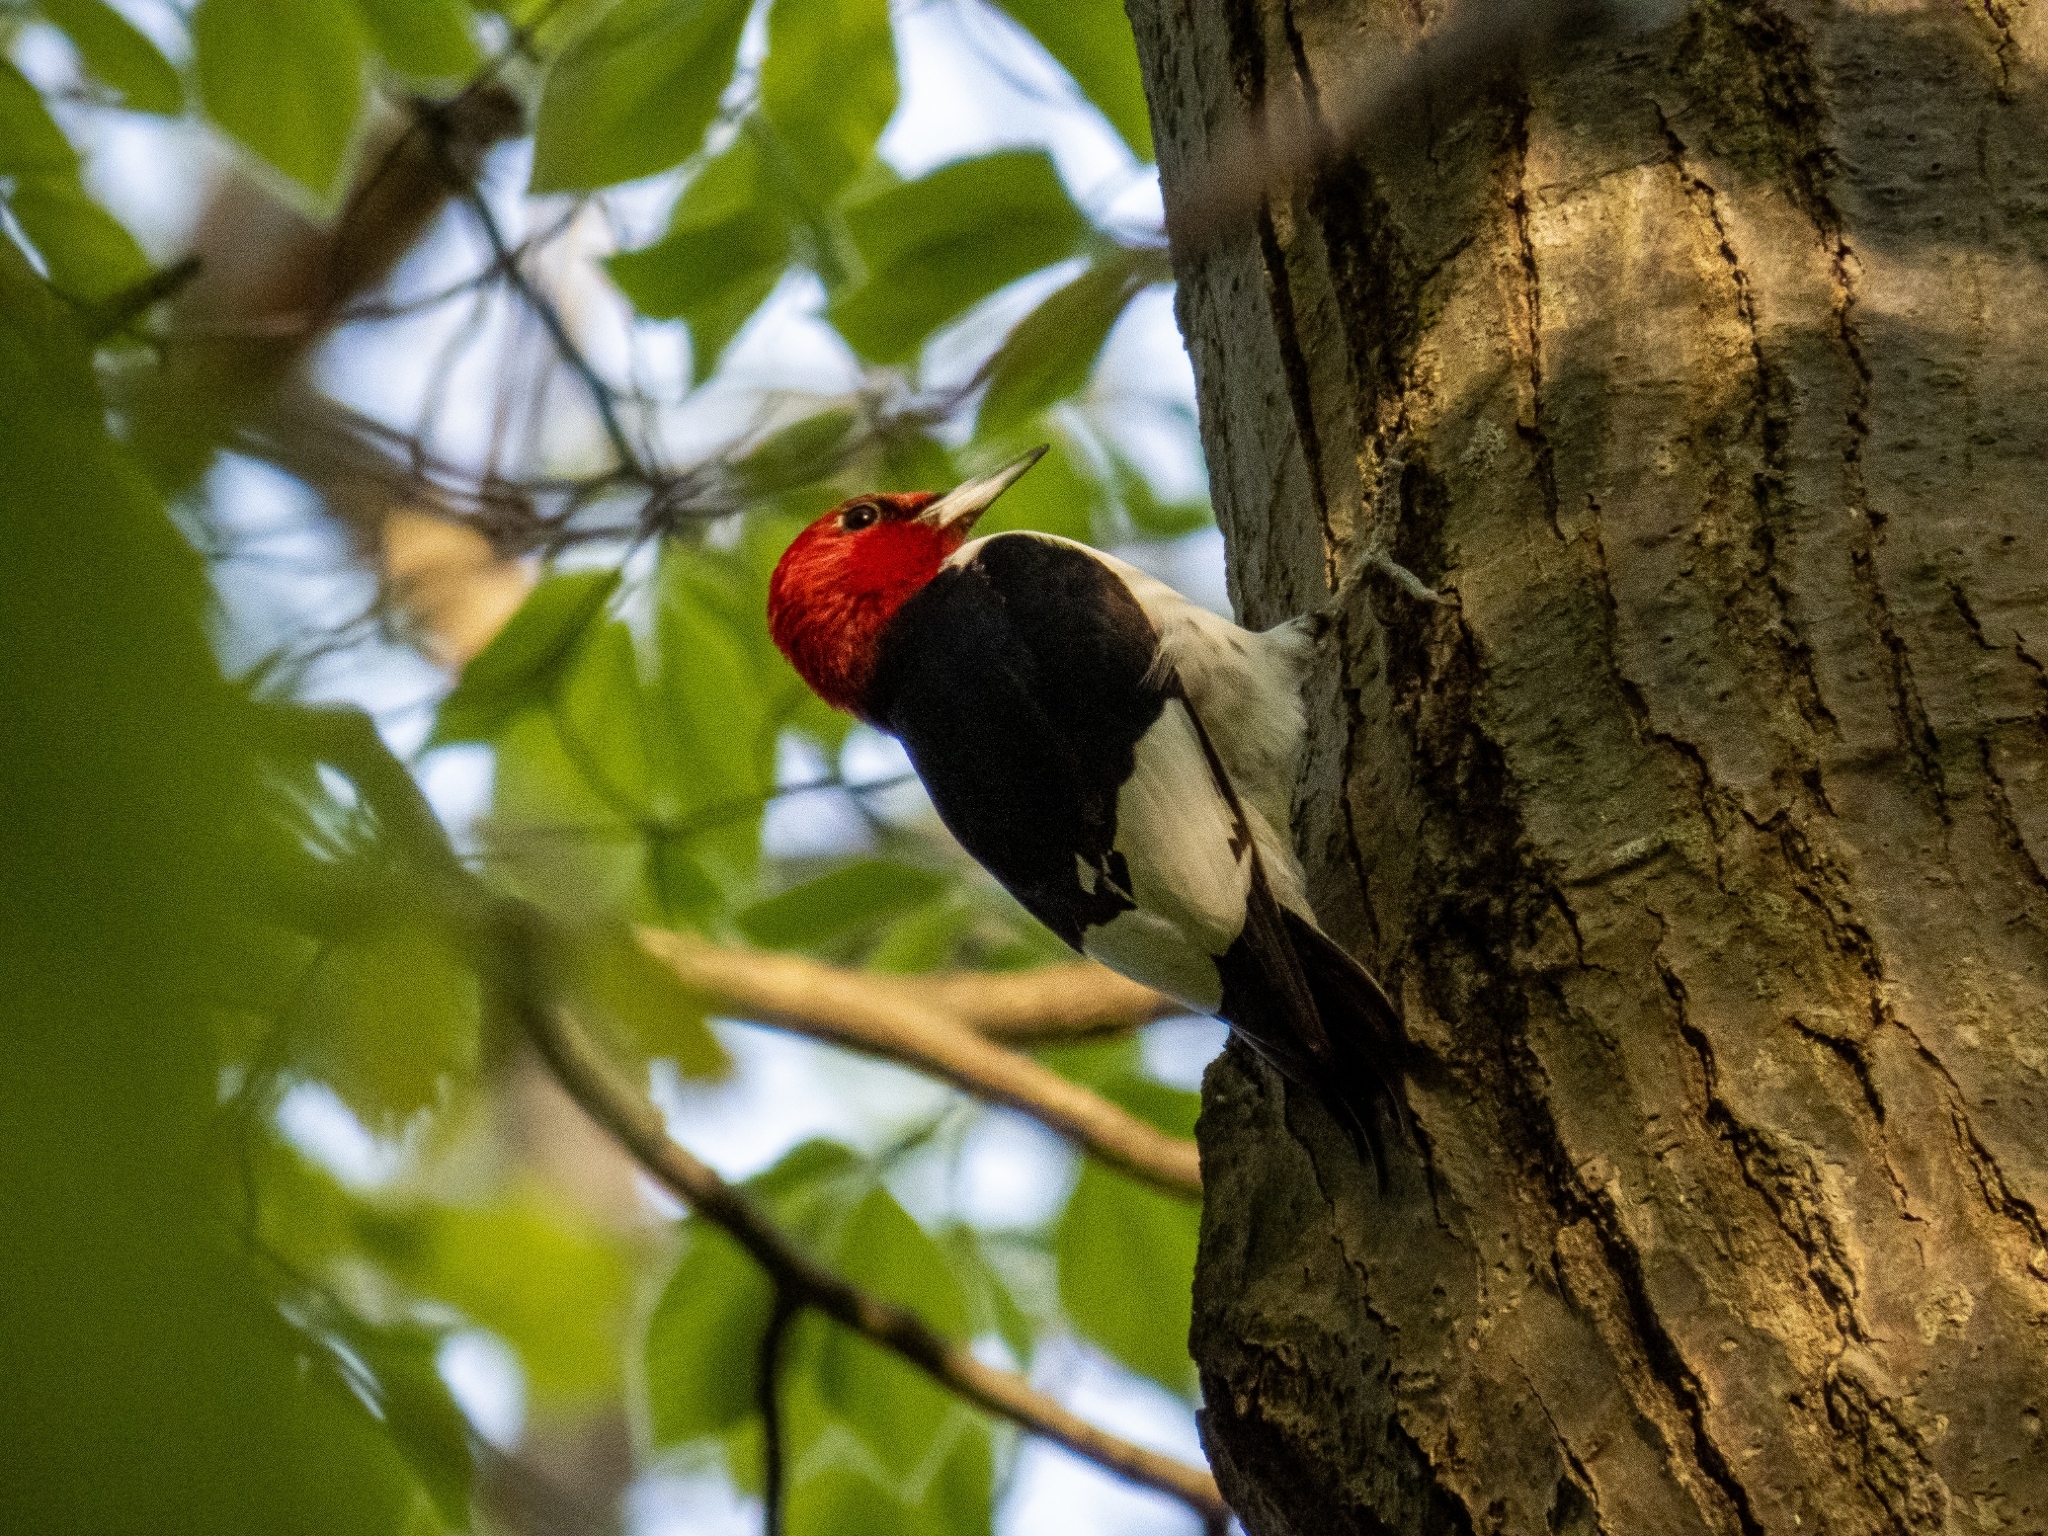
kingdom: Animalia
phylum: Chordata
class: Aves
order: Piciformes
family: Picidae
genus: Melanerpes
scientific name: Melanerpes erythrocephalus
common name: Red-headed woodpecker
